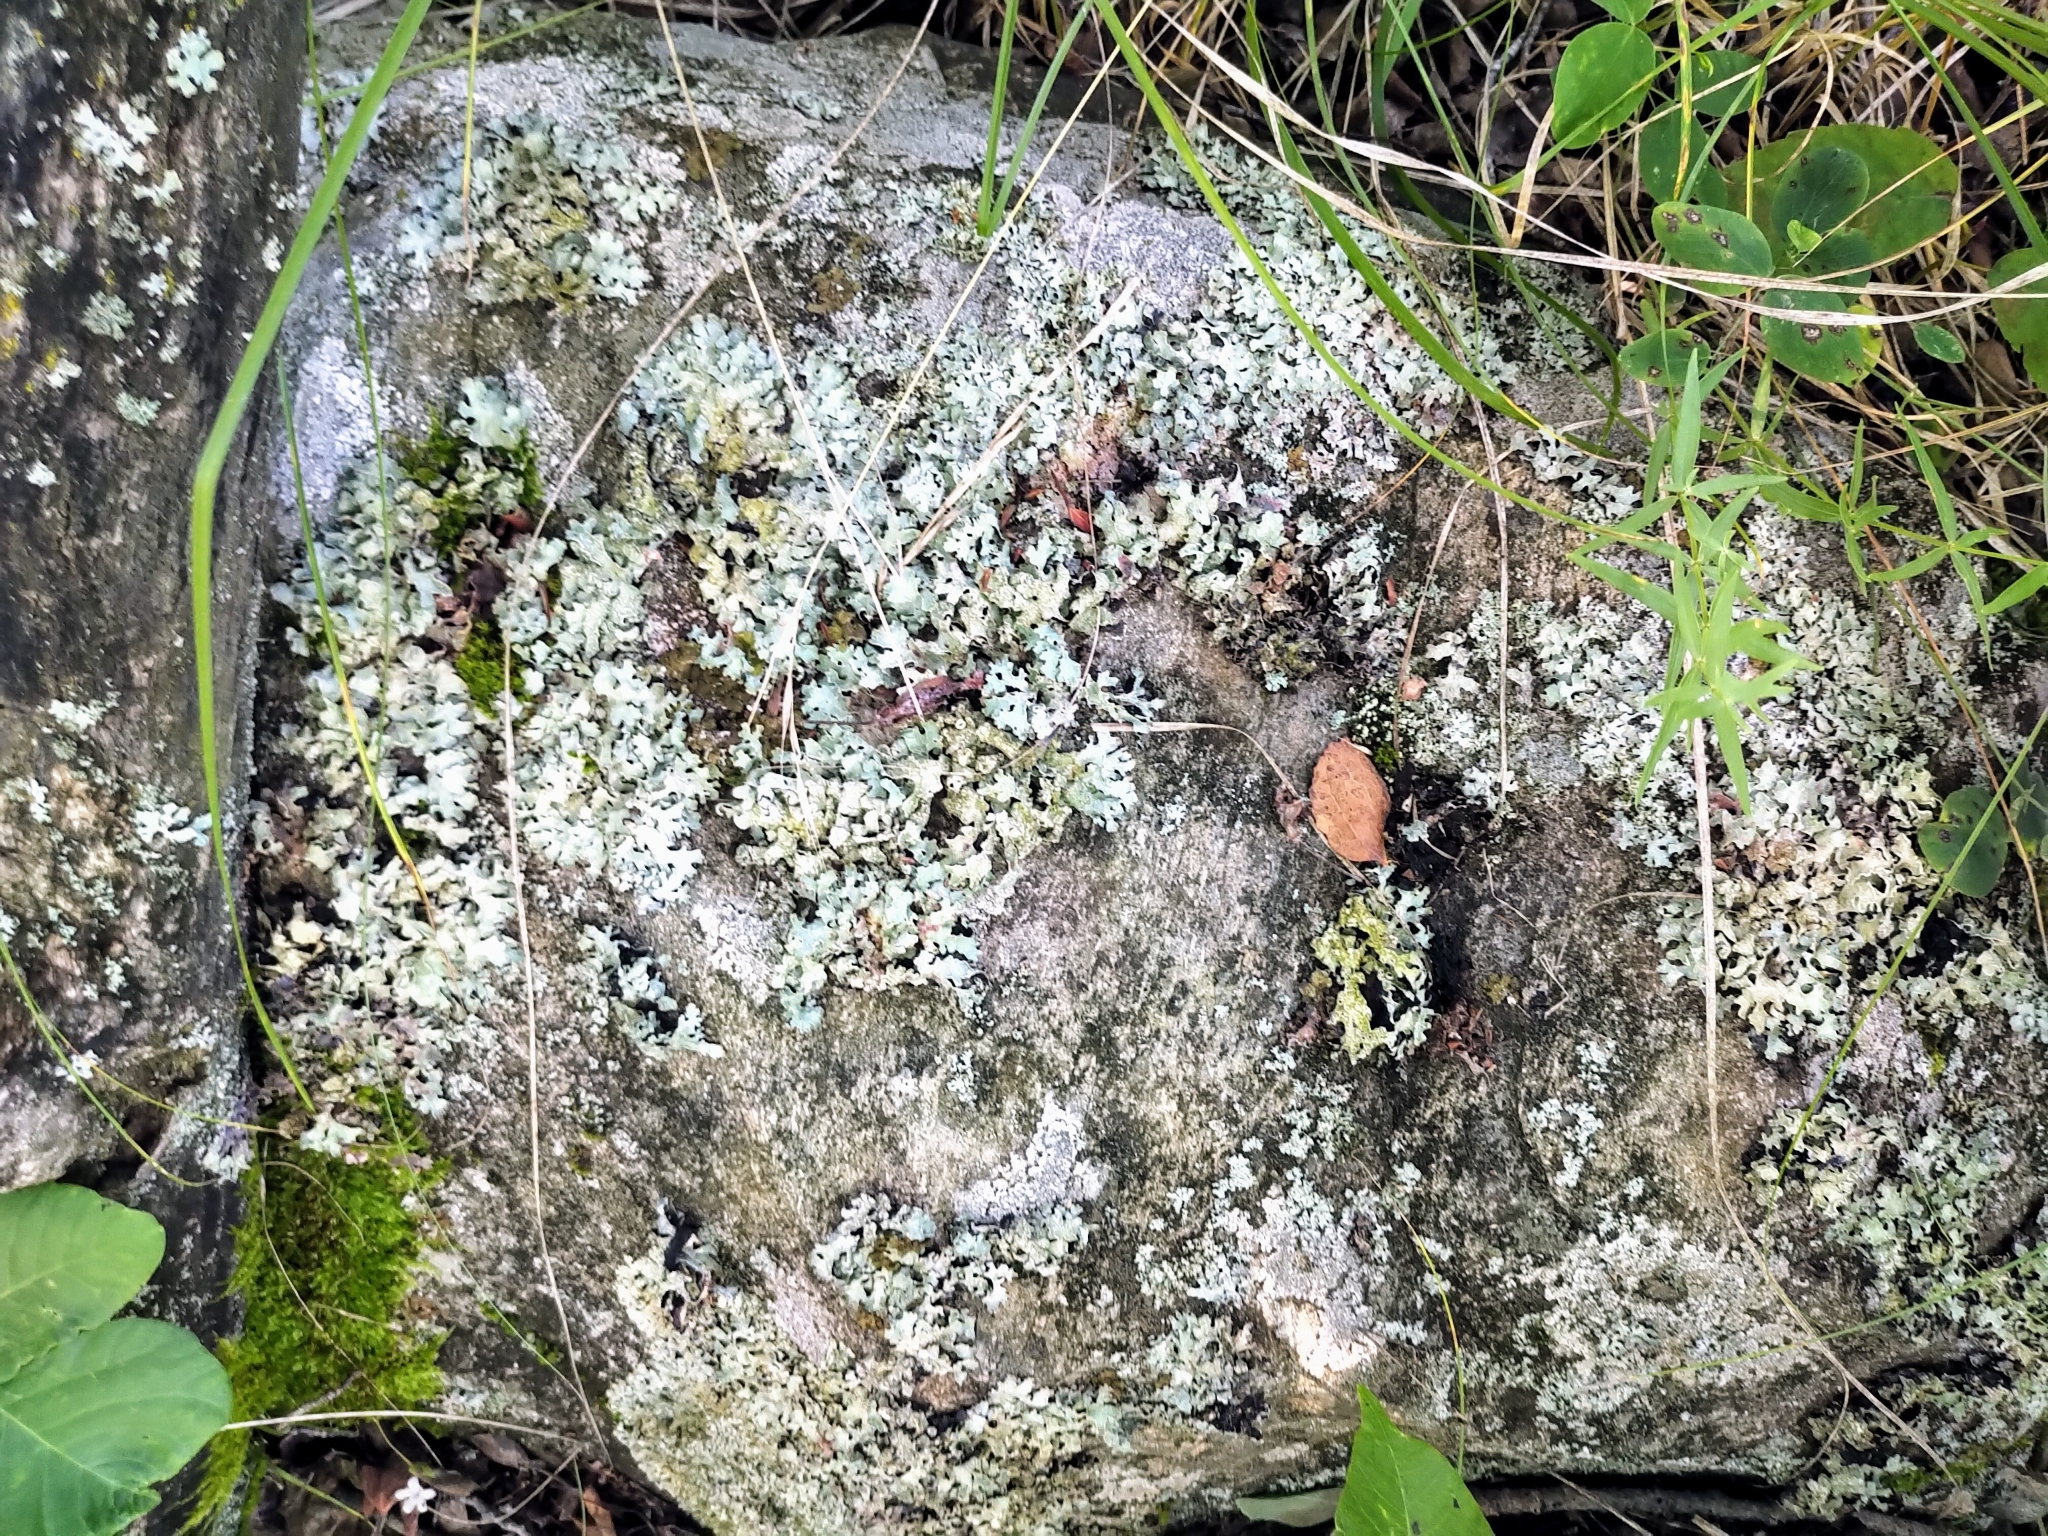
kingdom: Fungi
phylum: Ascomycota
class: Lecanoromycetes
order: Lecanorales
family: Parmeliaceae
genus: Parmelia
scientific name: Parmelia sulcata
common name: Netted shield lichen
